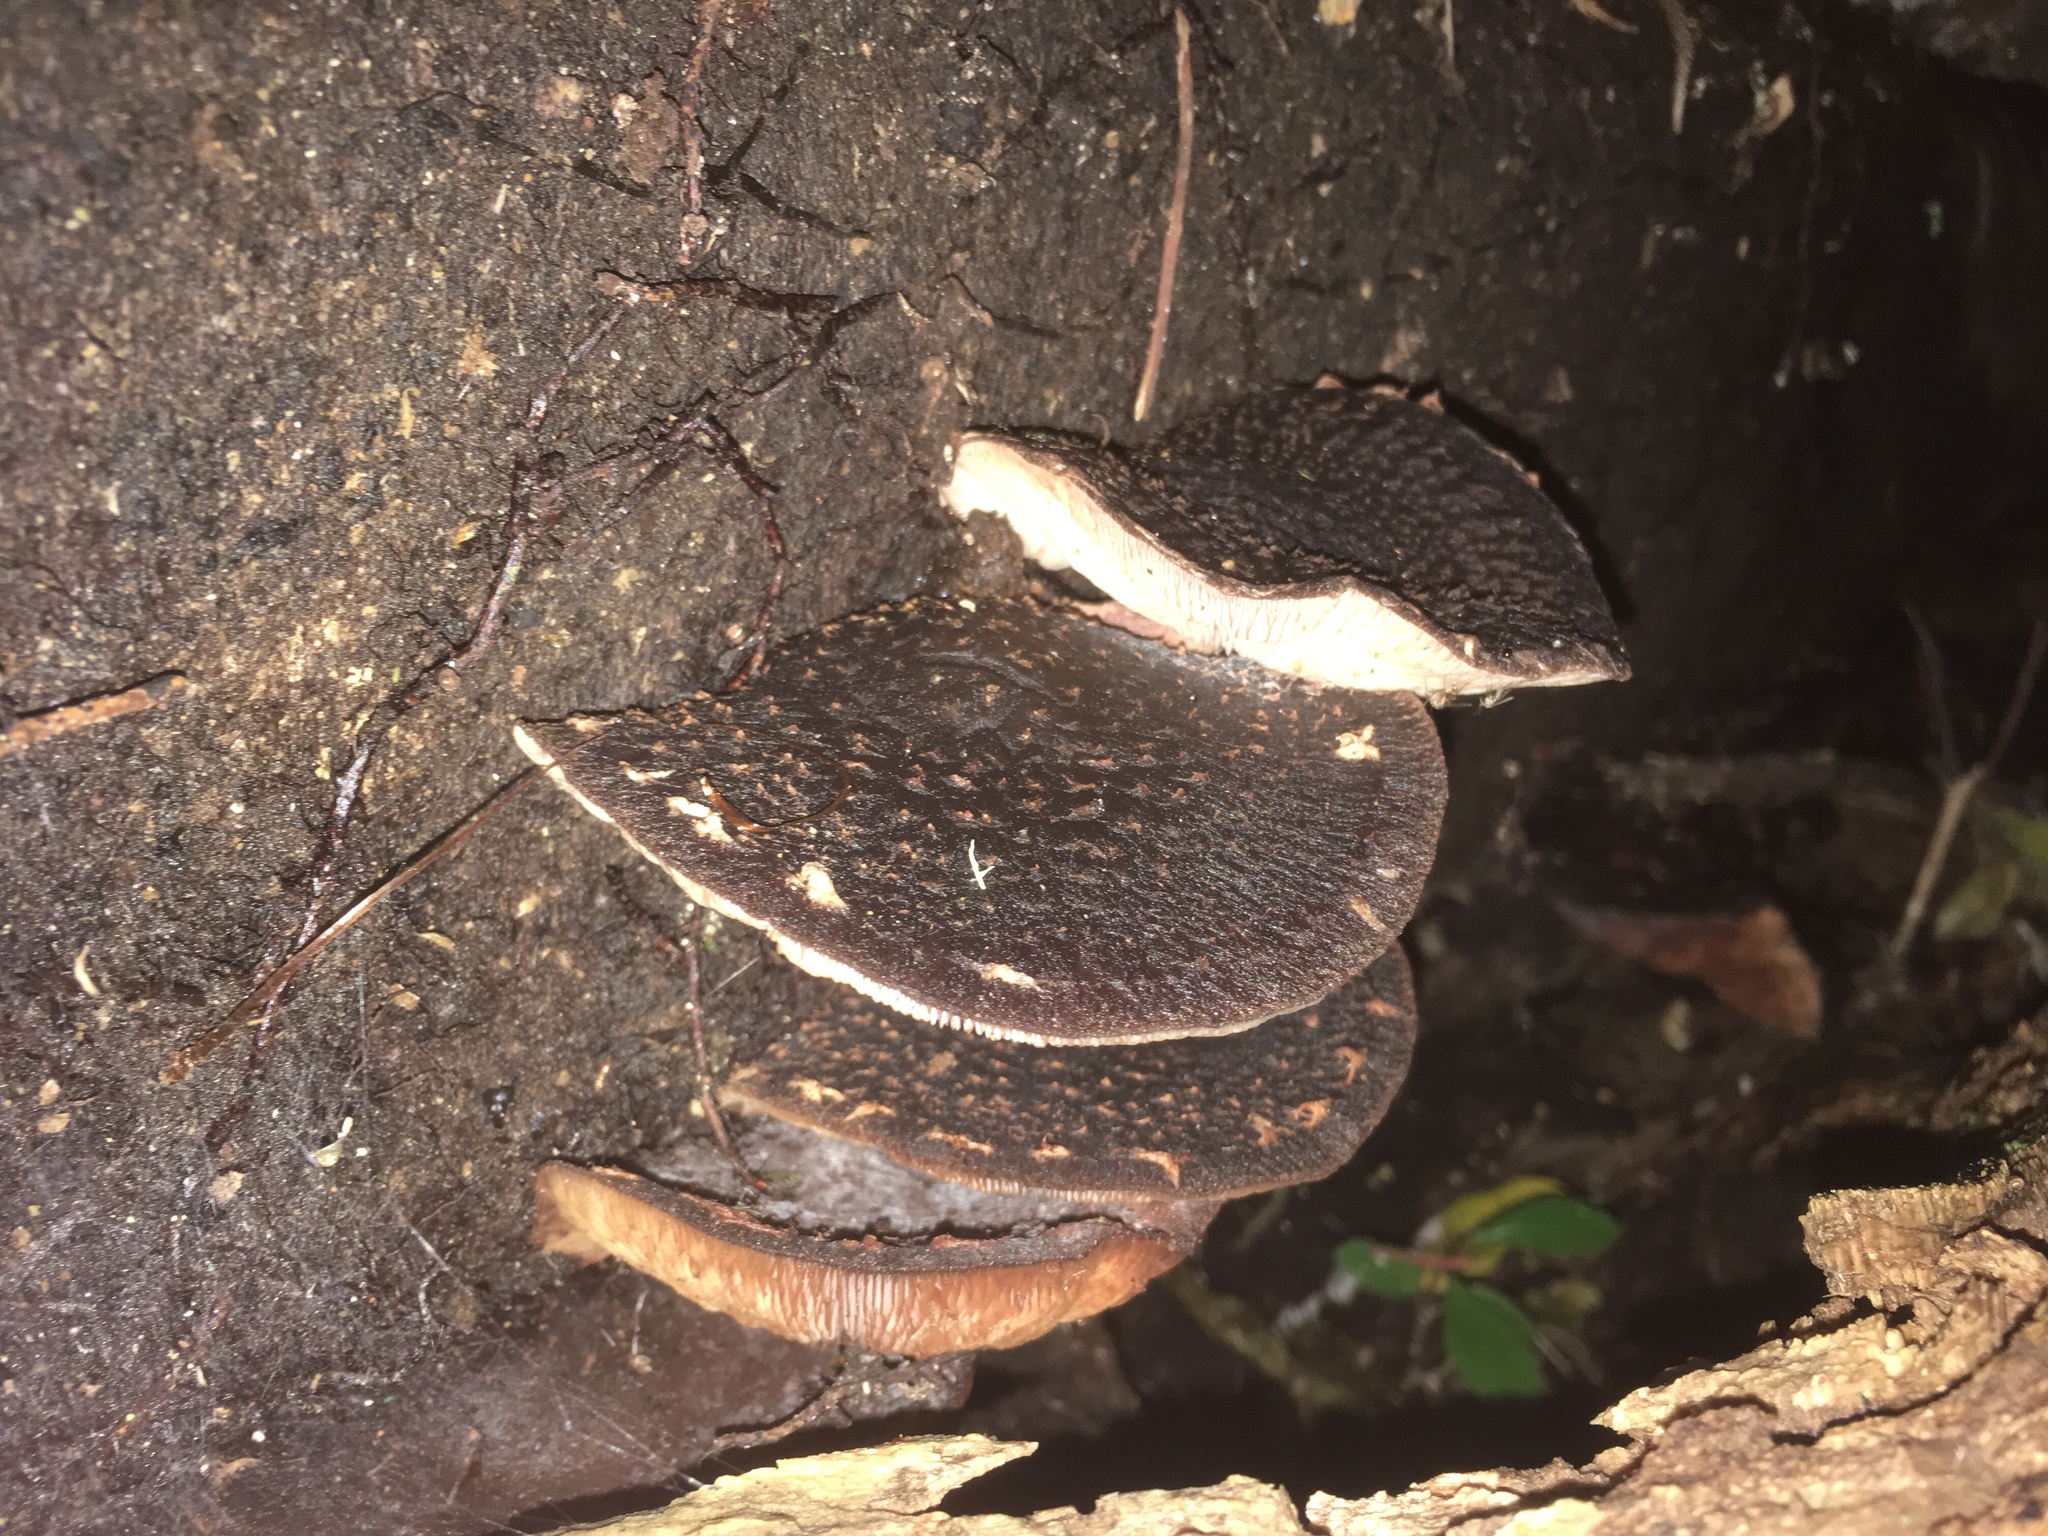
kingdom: Fungi
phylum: Basidiomycota
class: Agaricomycetes
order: Agaricales
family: Omphalotaceae
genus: Lentinula
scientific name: Lentinula novae-zelandiae
